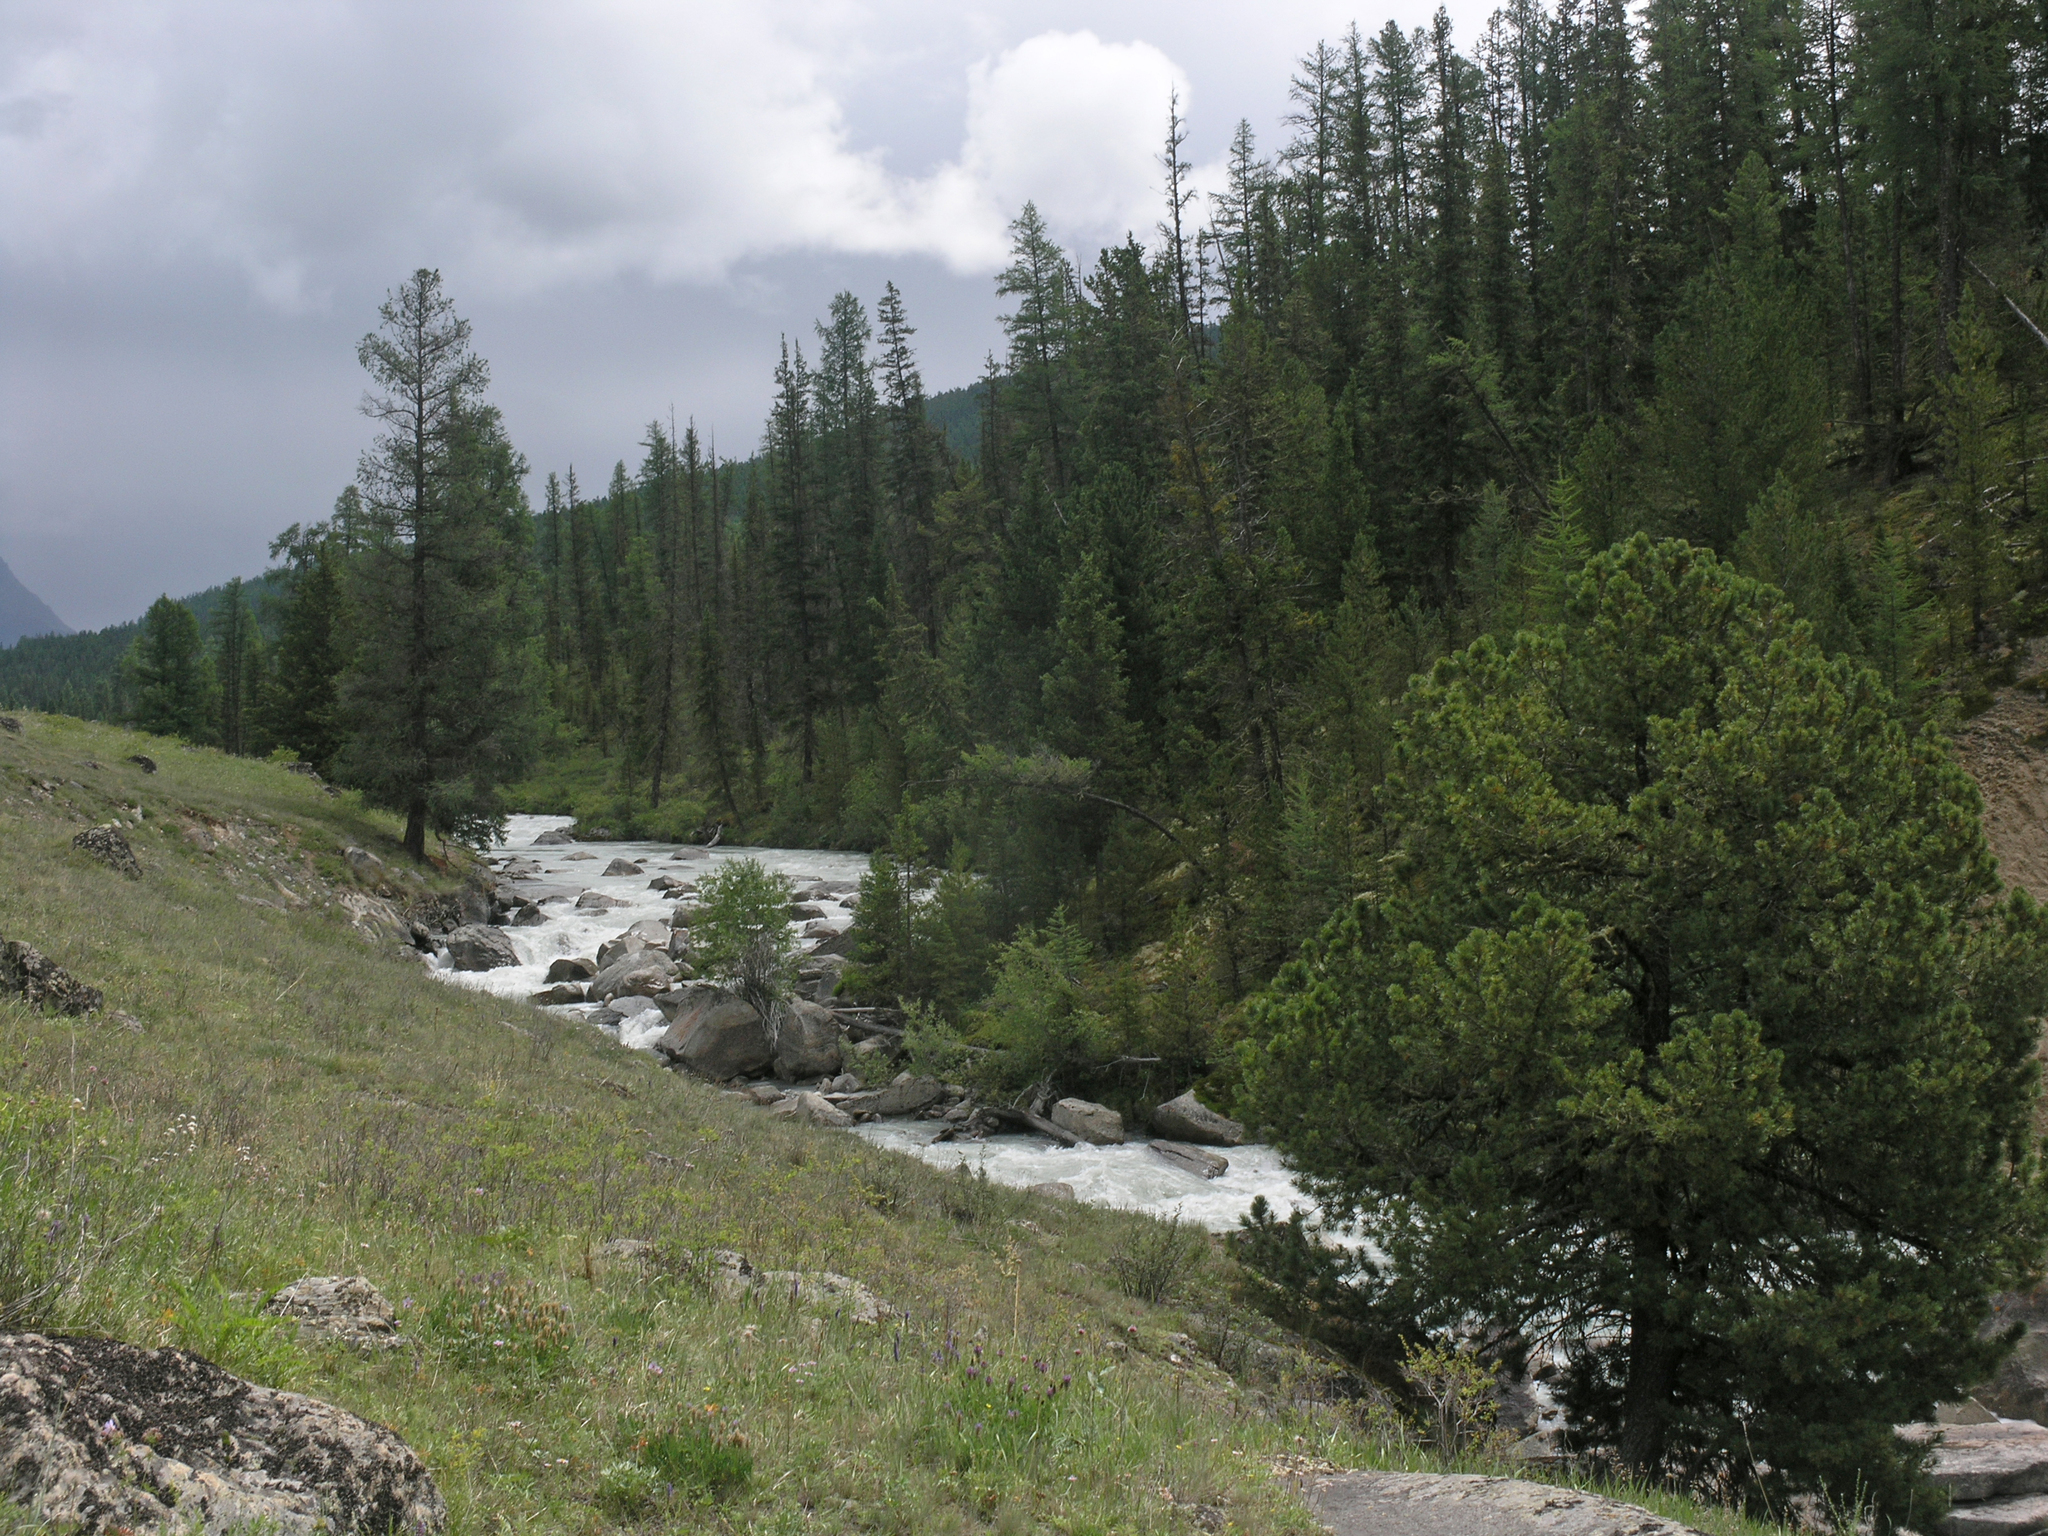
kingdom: Plantae
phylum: Tracheophyta
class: Pinopsida
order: Pinales
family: Pinaceae
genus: Pinus
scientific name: Pinus sibirica
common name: Siberian pine
